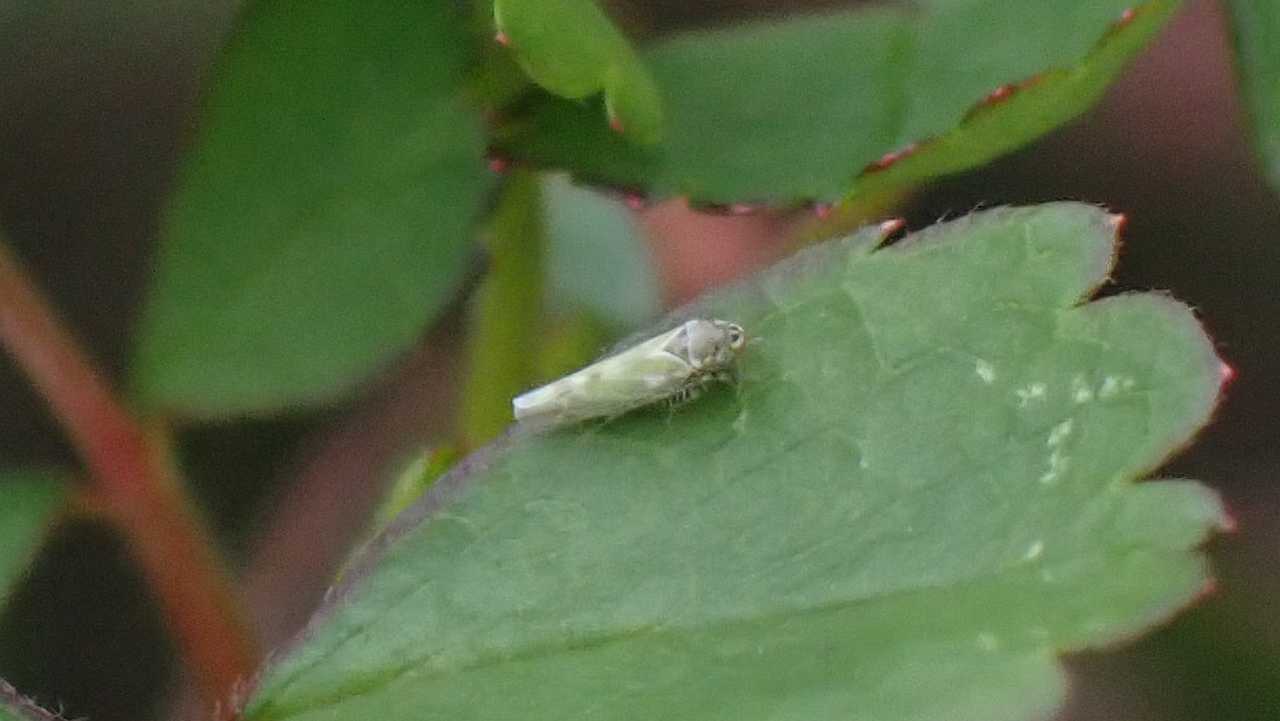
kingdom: Animalia
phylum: Arthropoda
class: Insecta
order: Hemiptera
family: Cicadellidae
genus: Frutioidia
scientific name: Frutioidia bisignata
